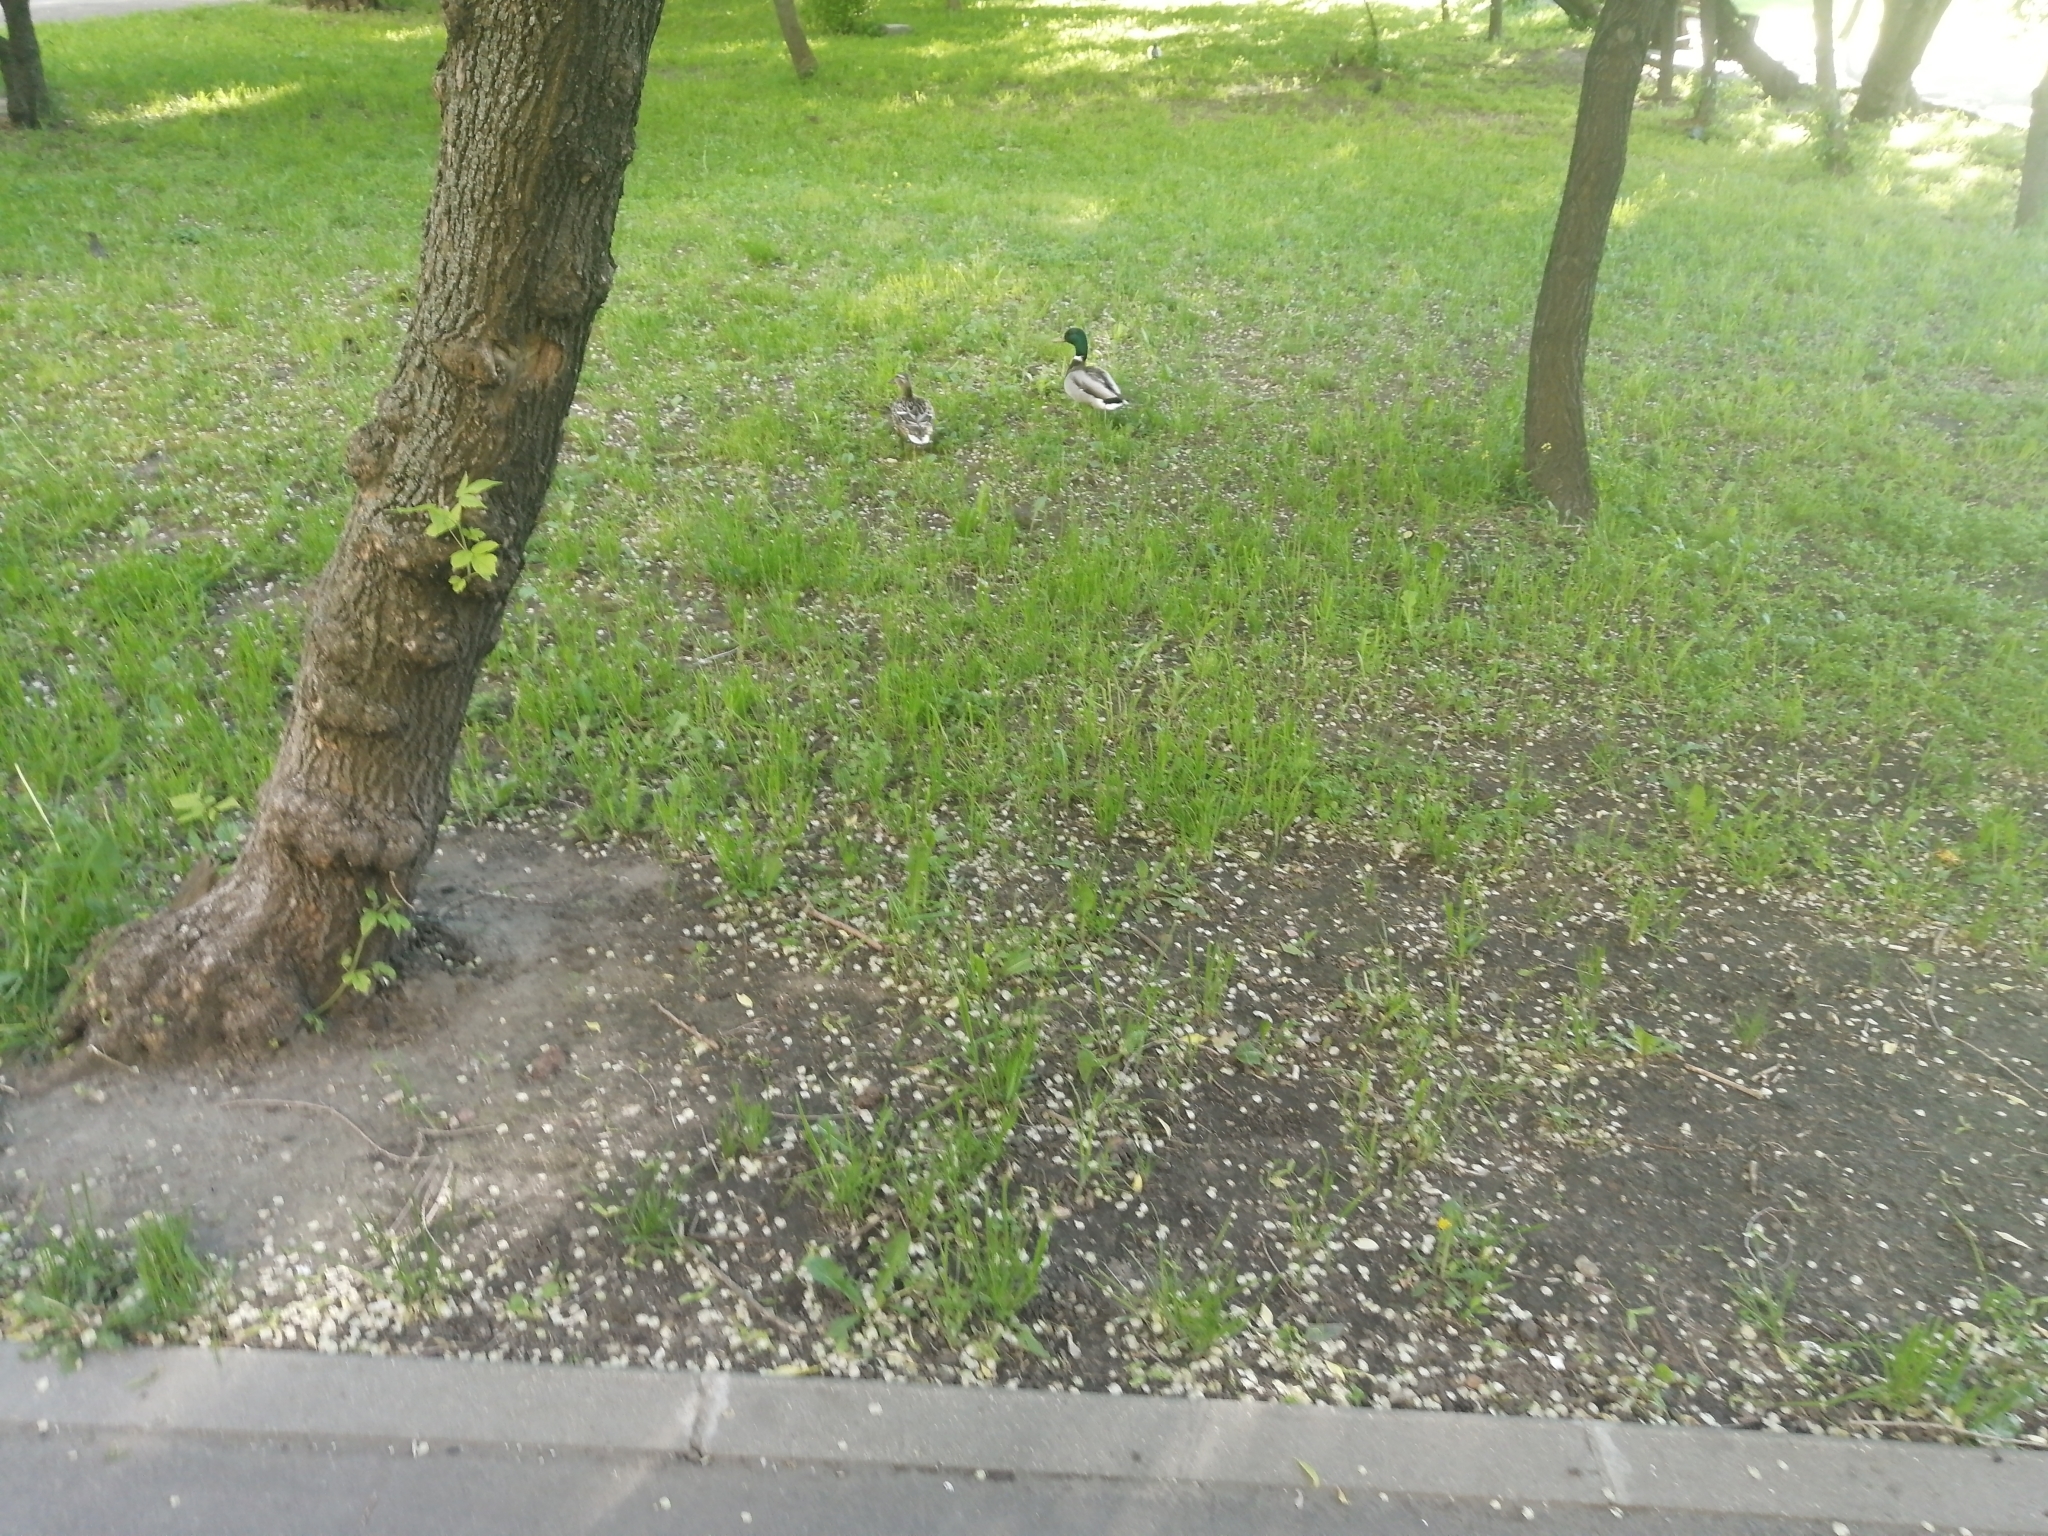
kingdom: Animalia
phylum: Chordata
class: Aves
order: Anseriformes
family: Anatidae
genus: Anas
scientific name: Anas platyrhynchos
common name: Mallard
